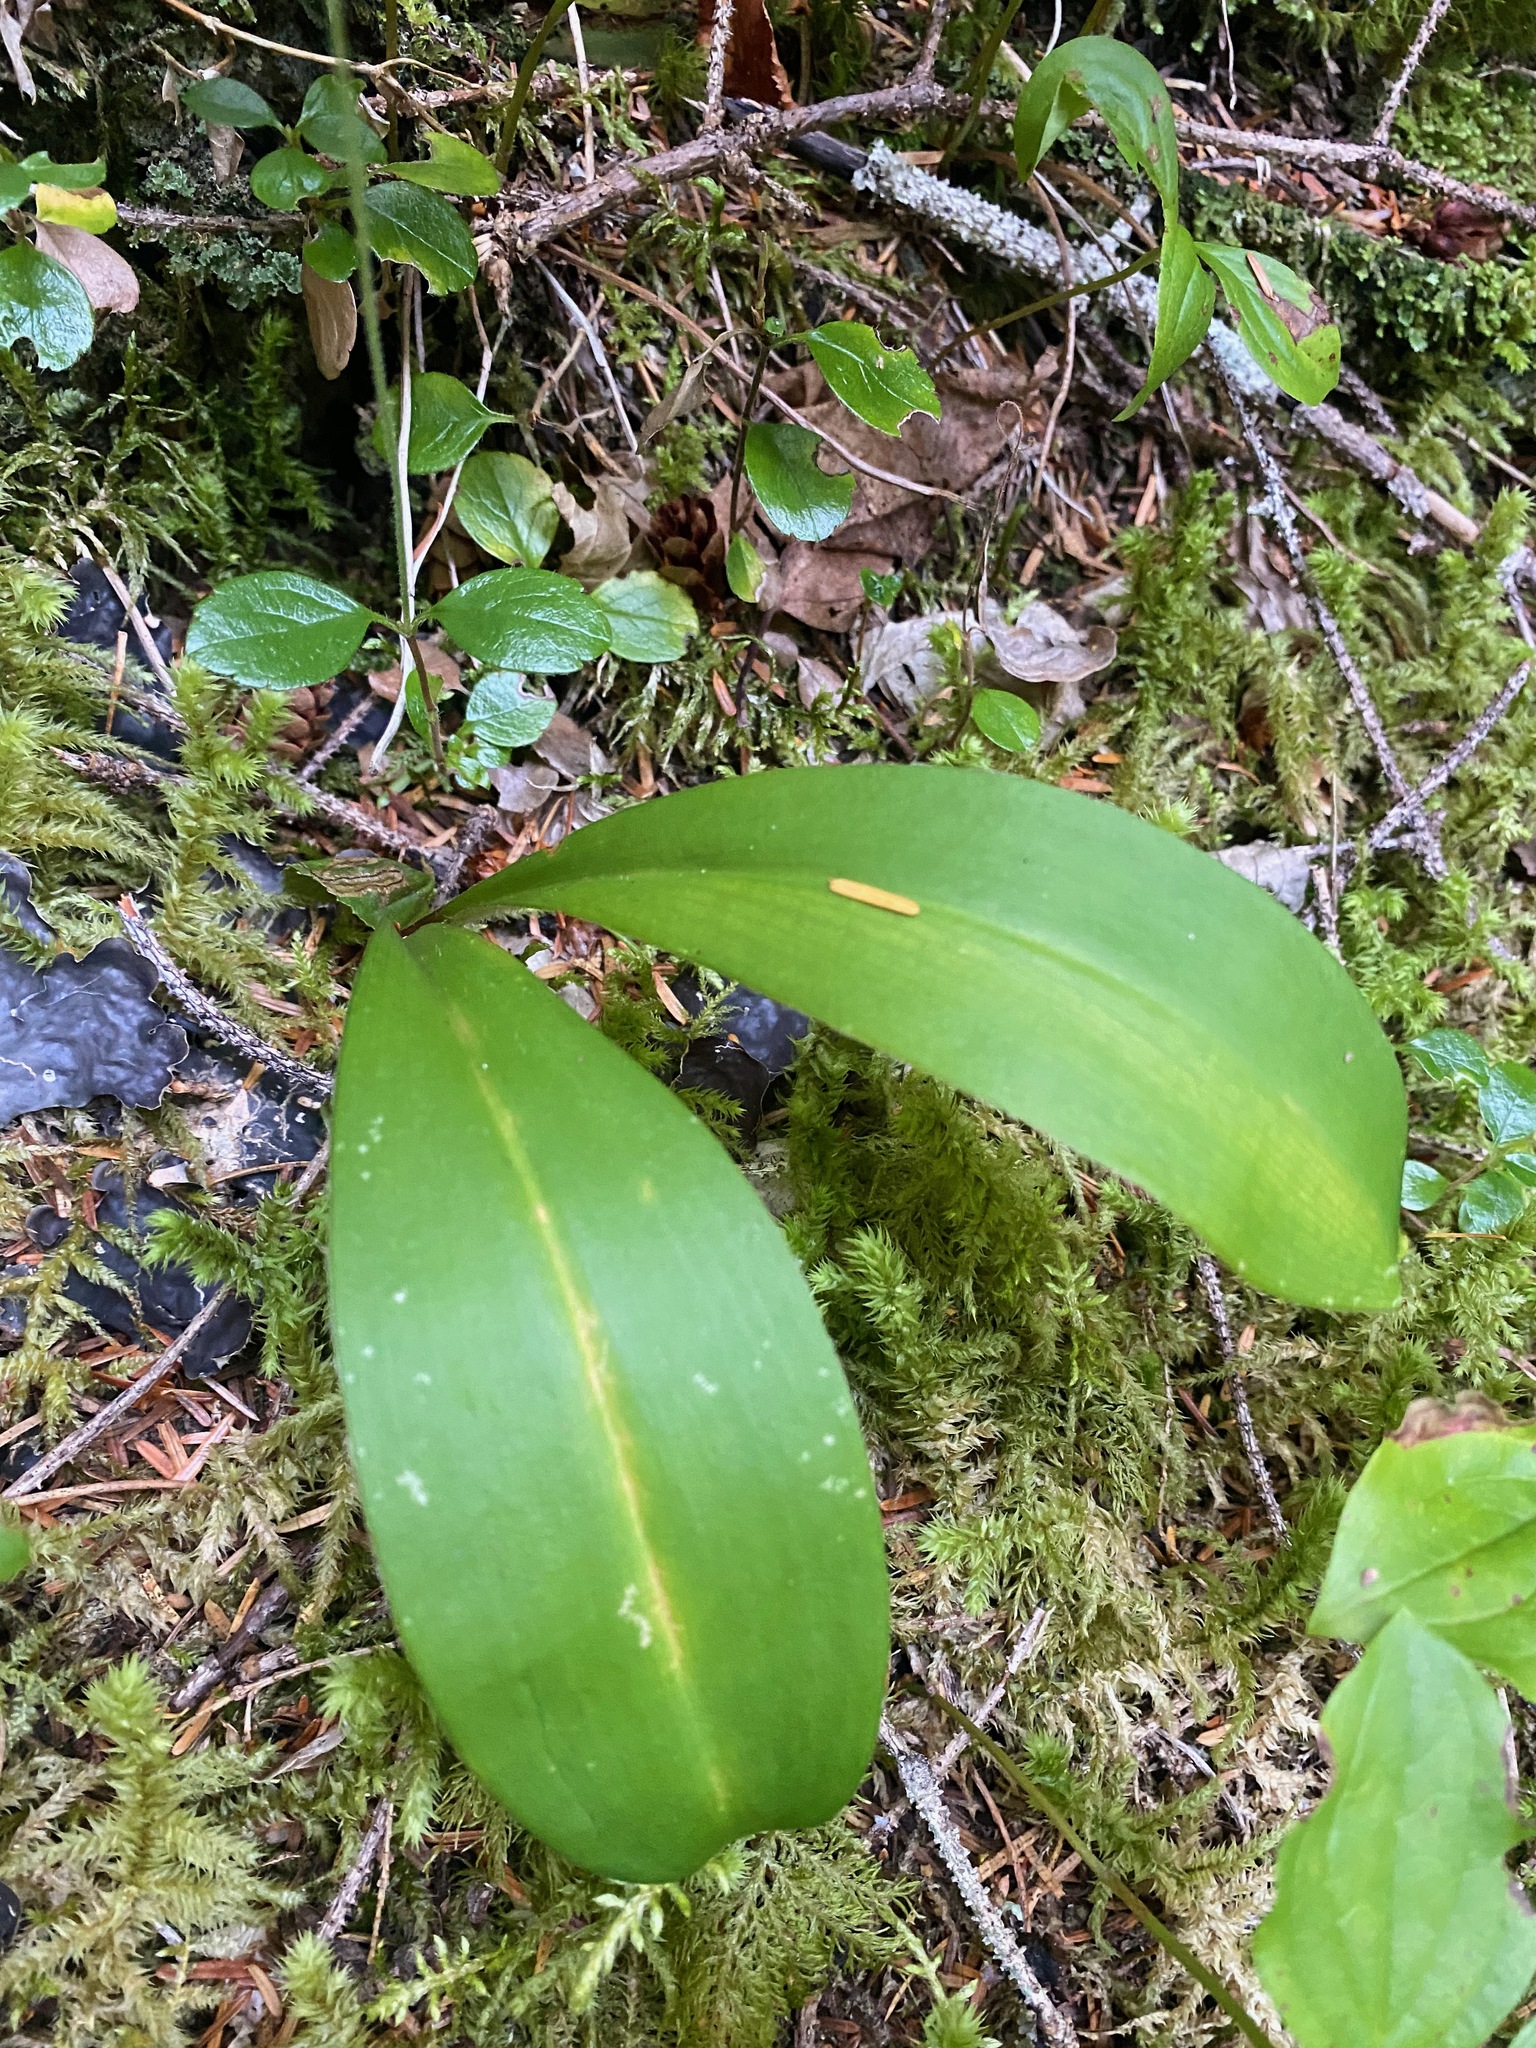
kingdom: Plantae
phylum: Tracheophyta
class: Liliopsida
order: Liliales
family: Liliaceae
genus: Clintonia
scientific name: Clintonia uniflora
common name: Queen's cup
